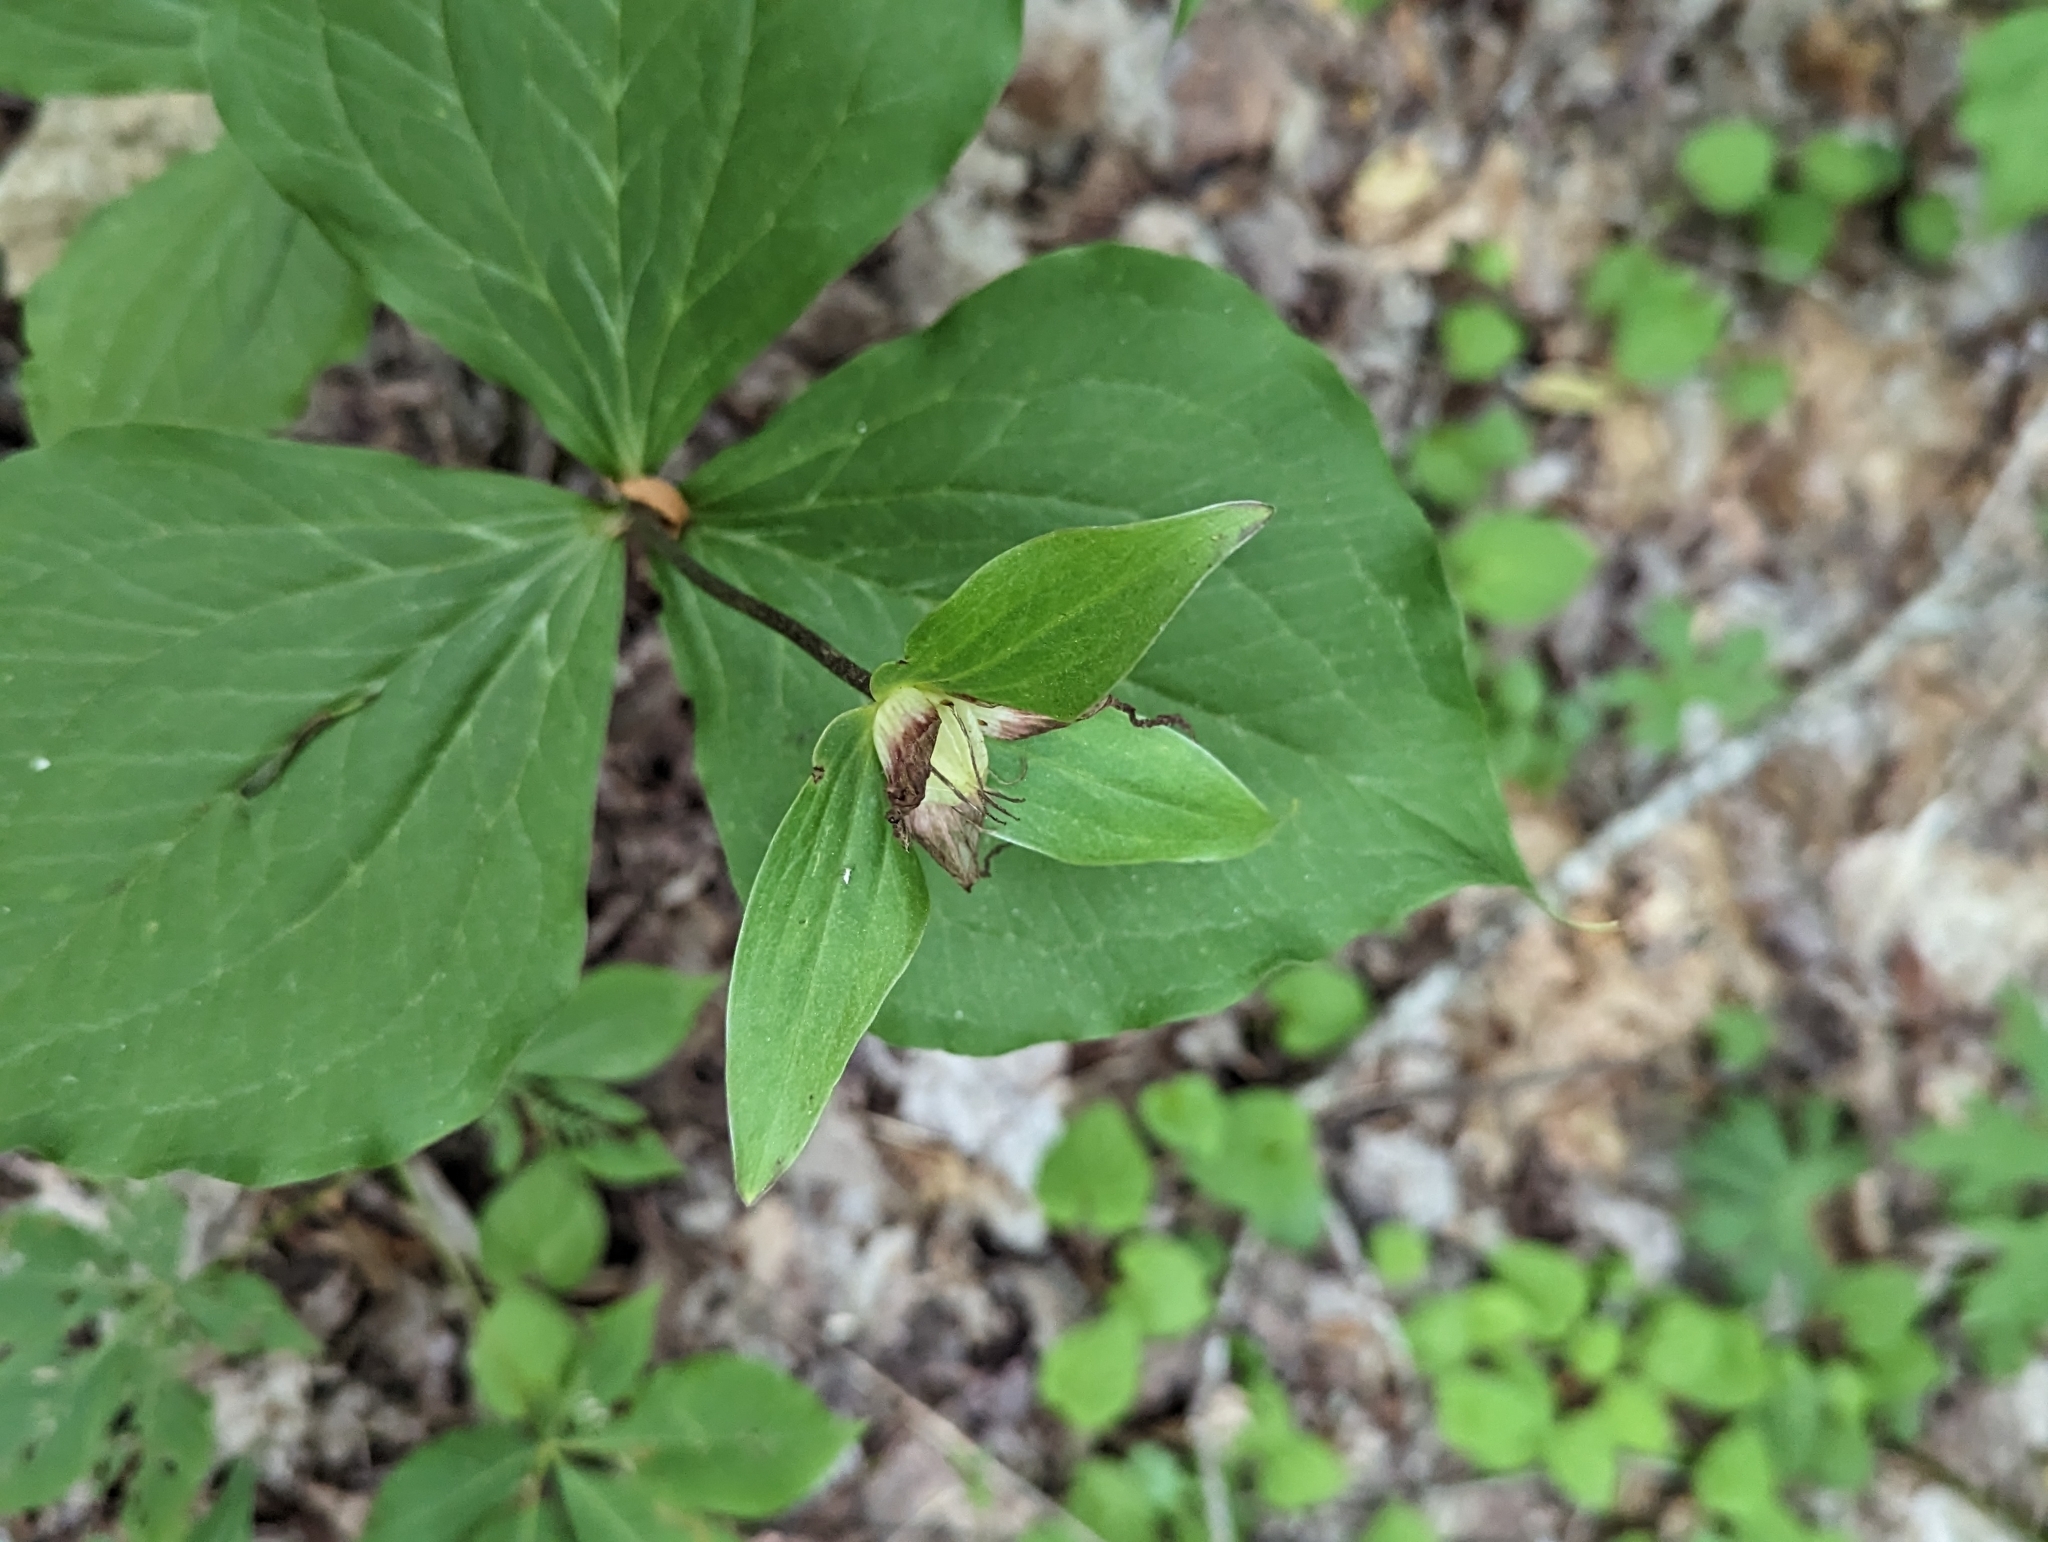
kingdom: Plantae
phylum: Tracheophyta
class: Liliopsida
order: Liliales
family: Melanthiaceae
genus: Trillium
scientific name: Trillium grandiflorum
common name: Great white trillium
